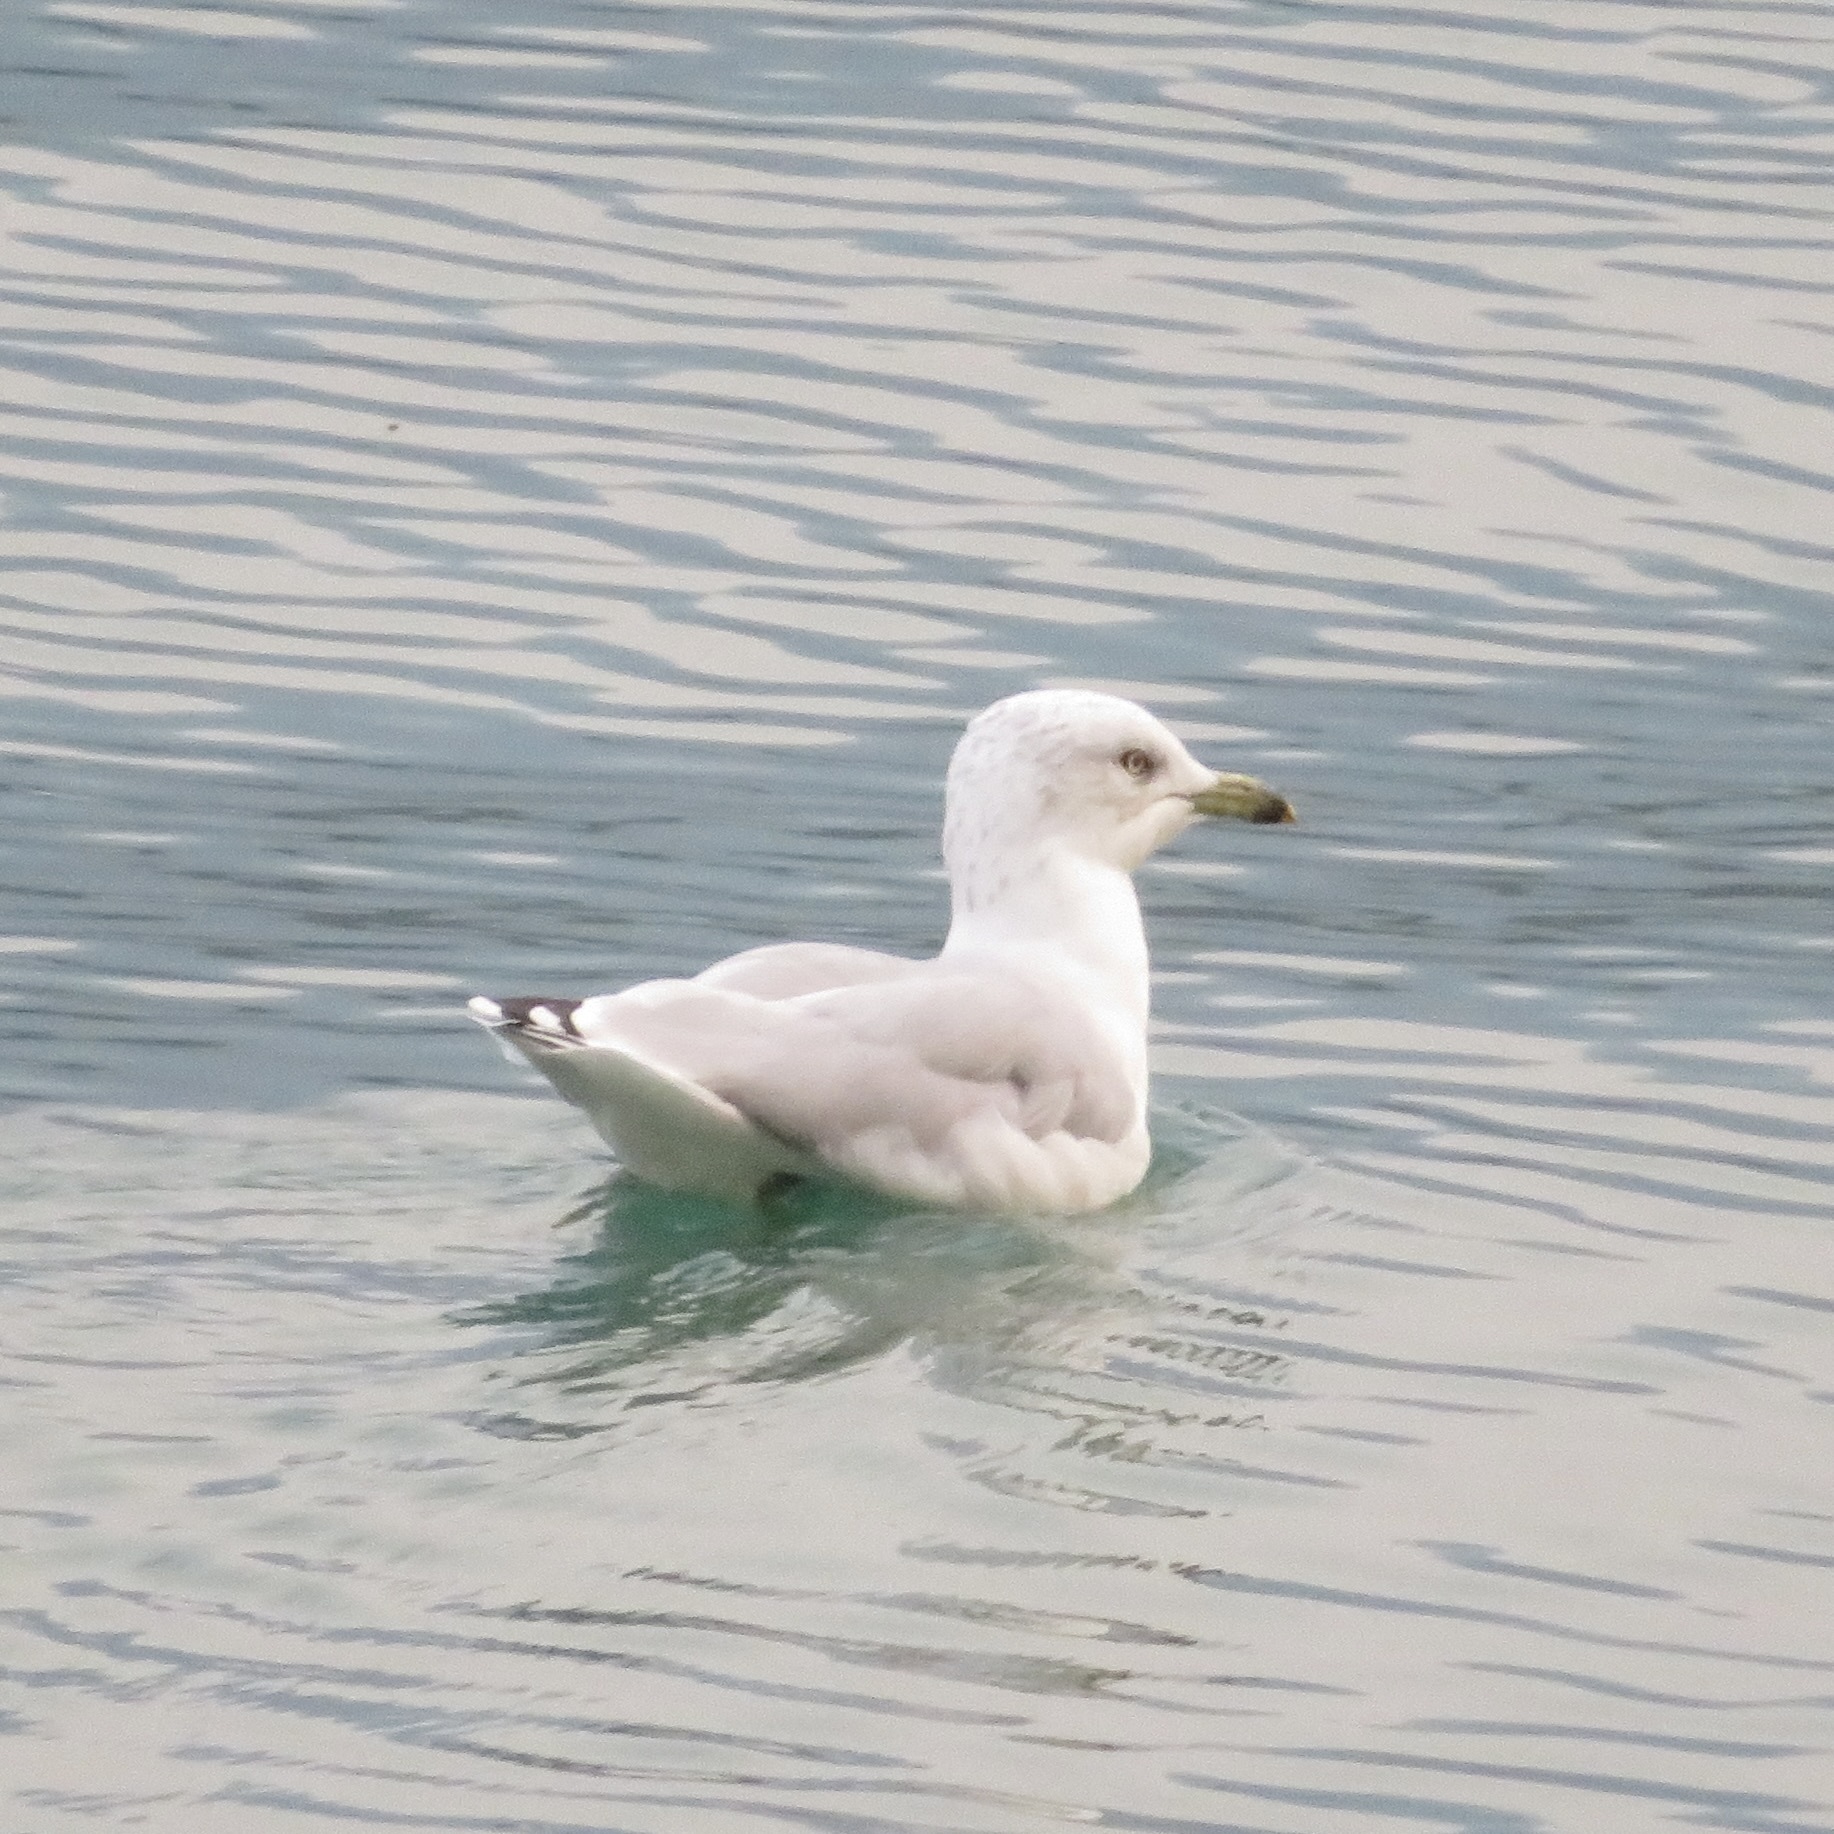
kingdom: Animalia
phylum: Chordata
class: Aves
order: Charadriiformes
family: Laridae
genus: Larus
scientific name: Larus delawarensis
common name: Ring-billed gull
